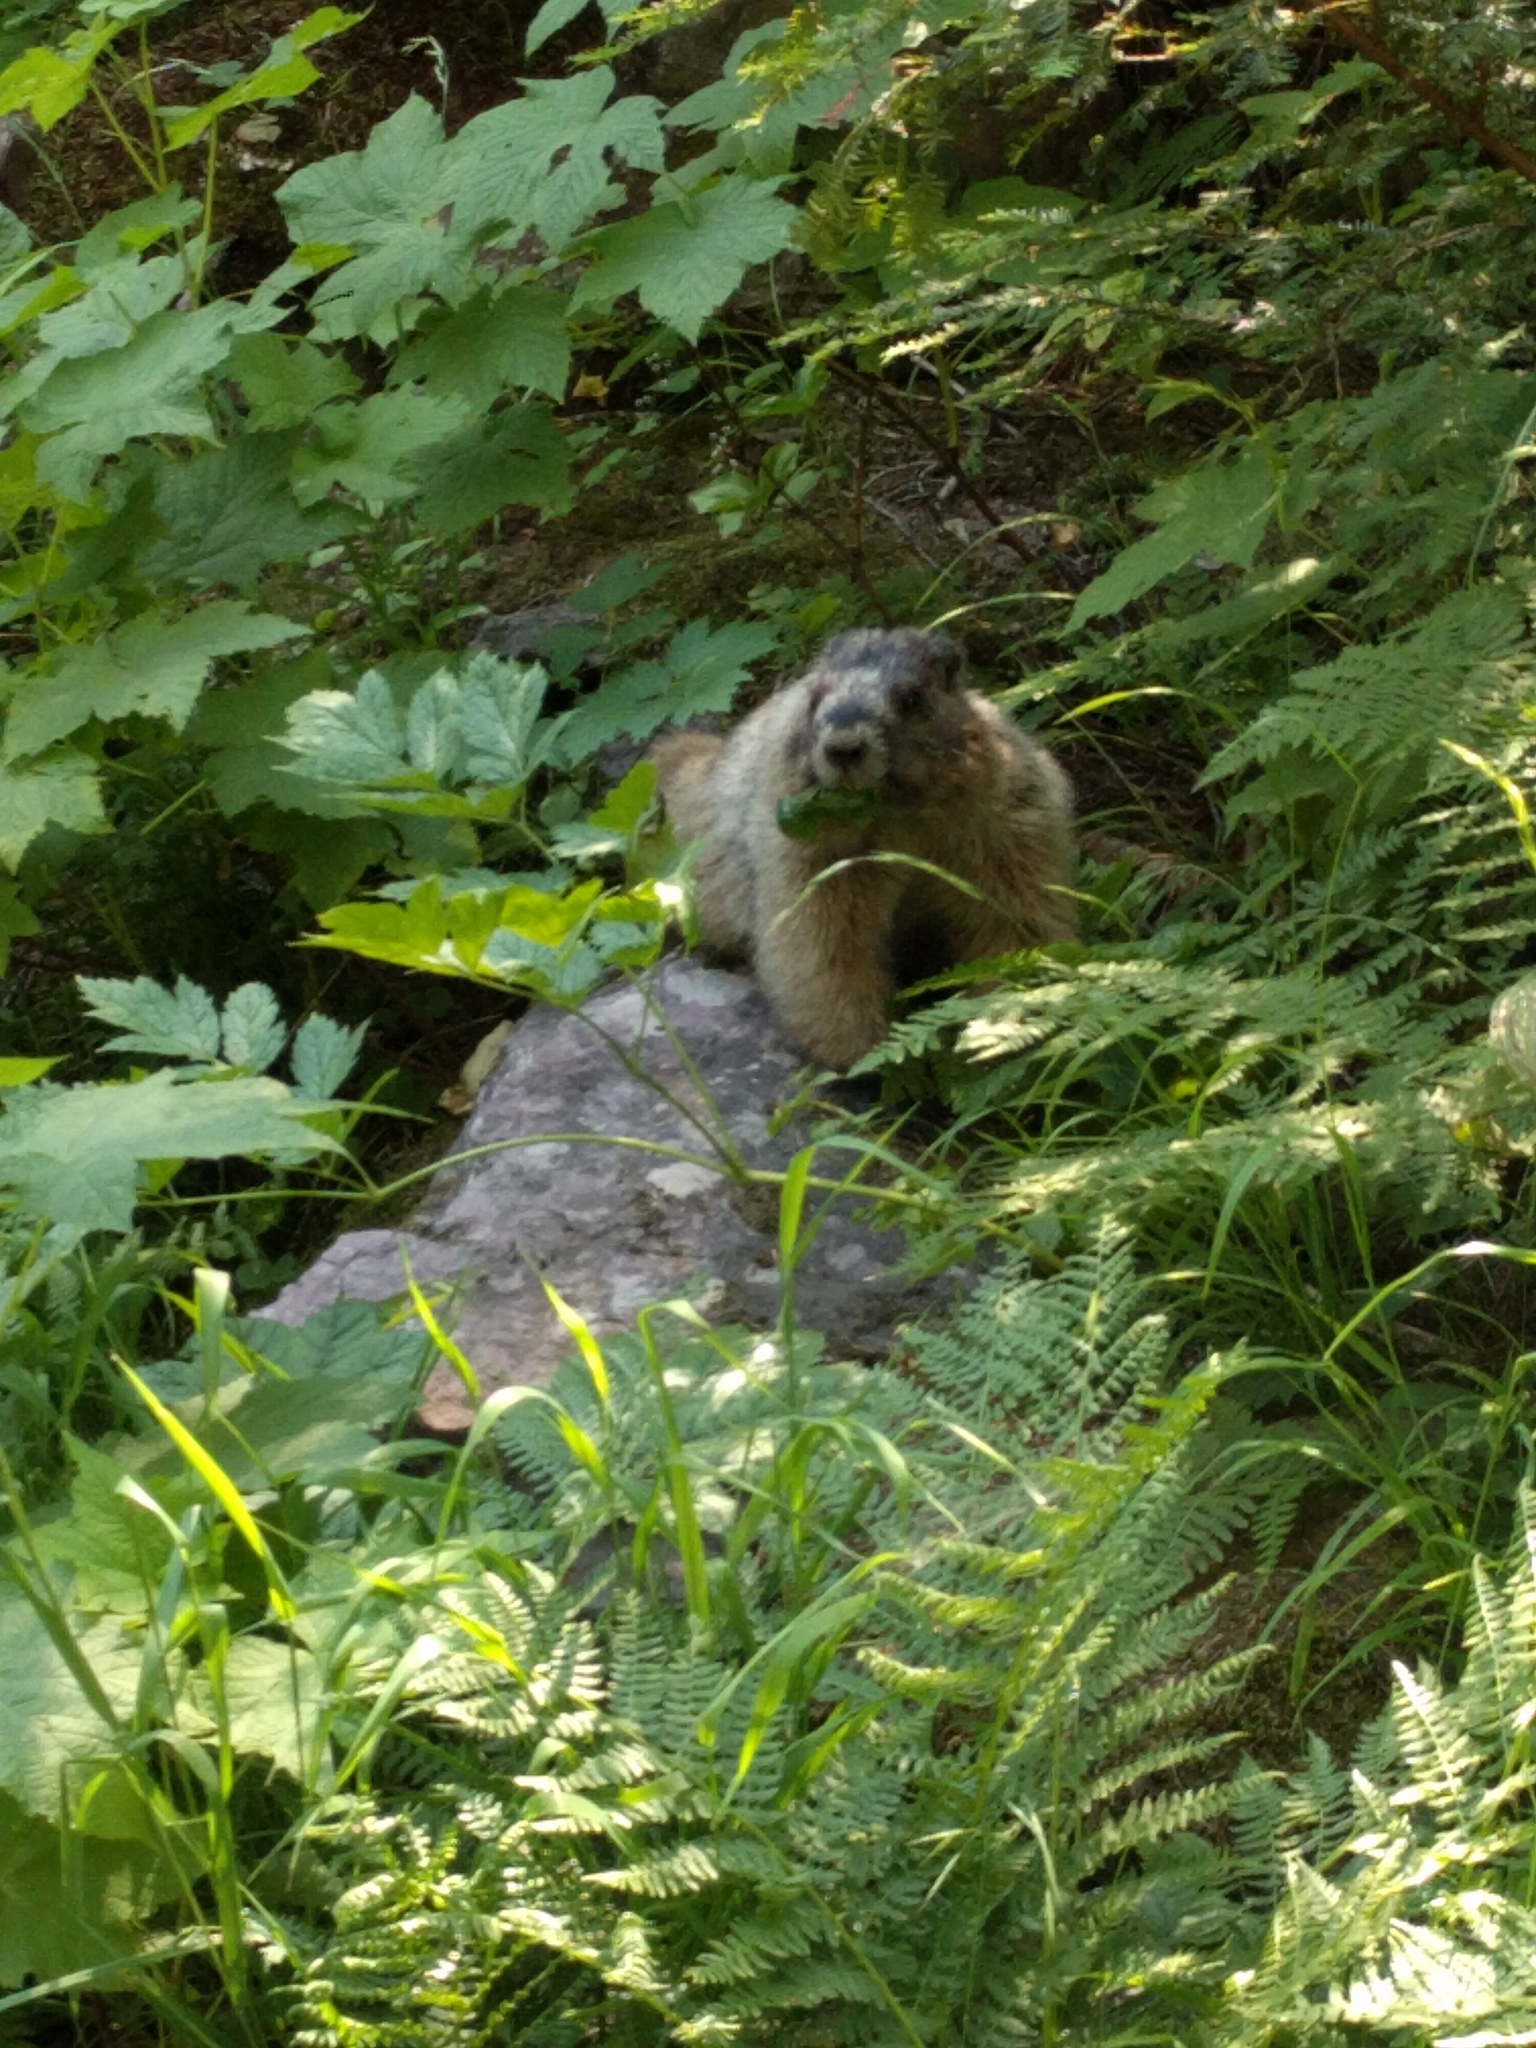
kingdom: Animalia
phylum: Chordata
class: Mammalia
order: Rodentia
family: Sciuridae
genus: Marmota
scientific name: Marmota caligata
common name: Hoary marmot
